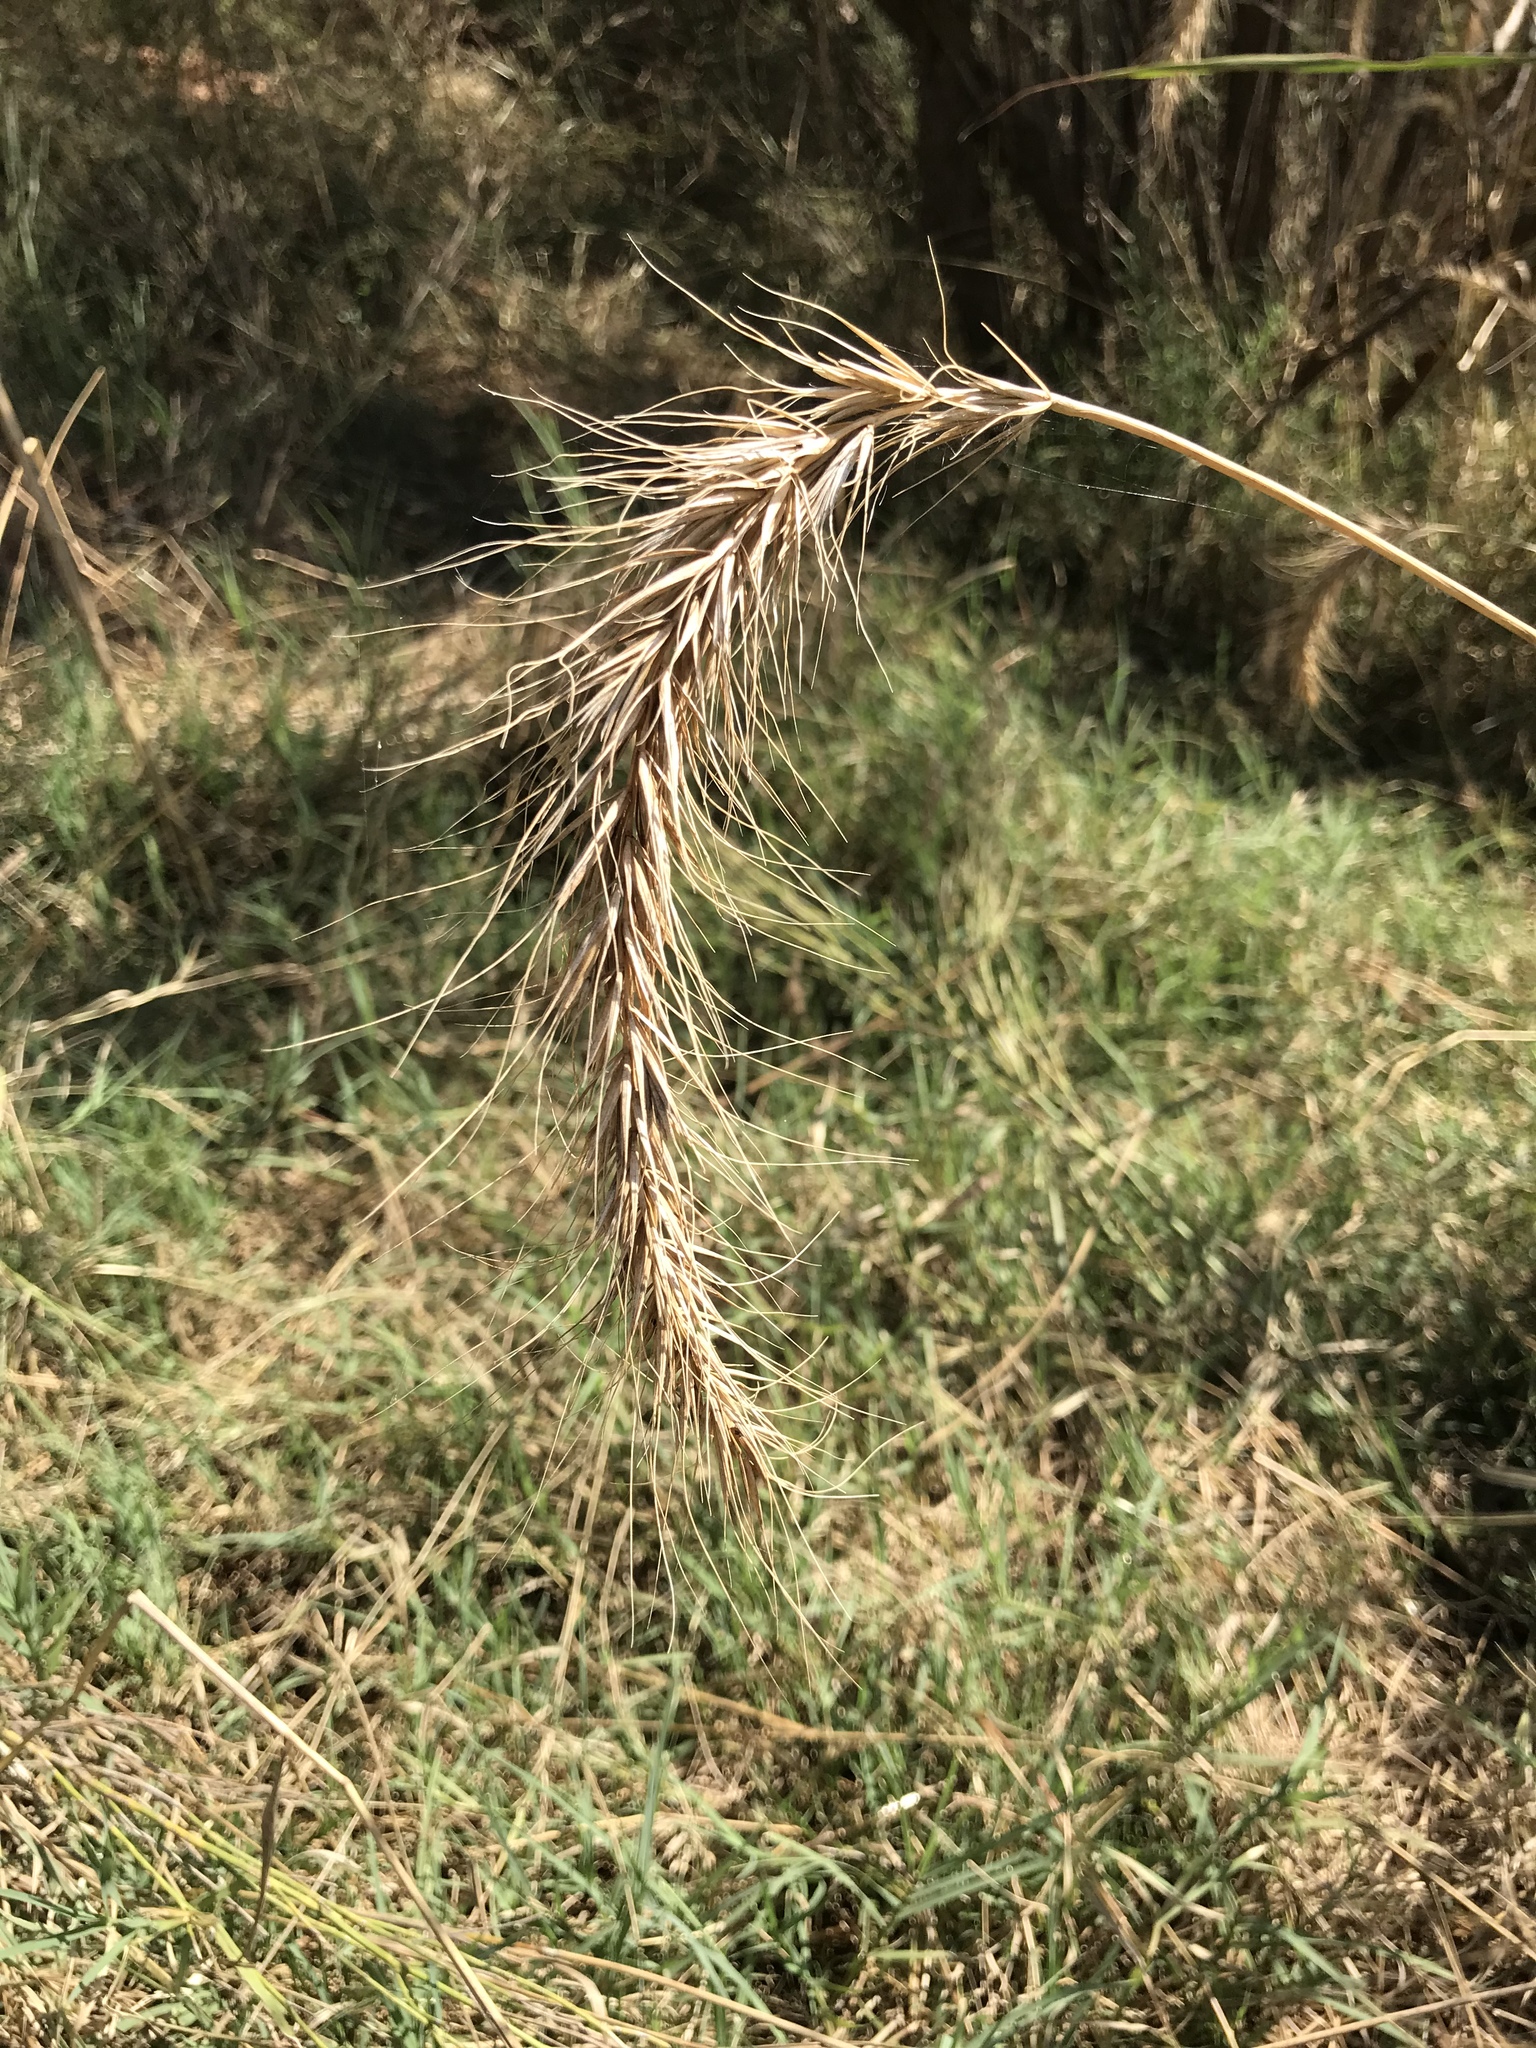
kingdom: Plantae
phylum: Tracheophyta
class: Liliopsida
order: Poales
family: Poaceae
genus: Elymus
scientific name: Elymus canadensis
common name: Canada wild rye
